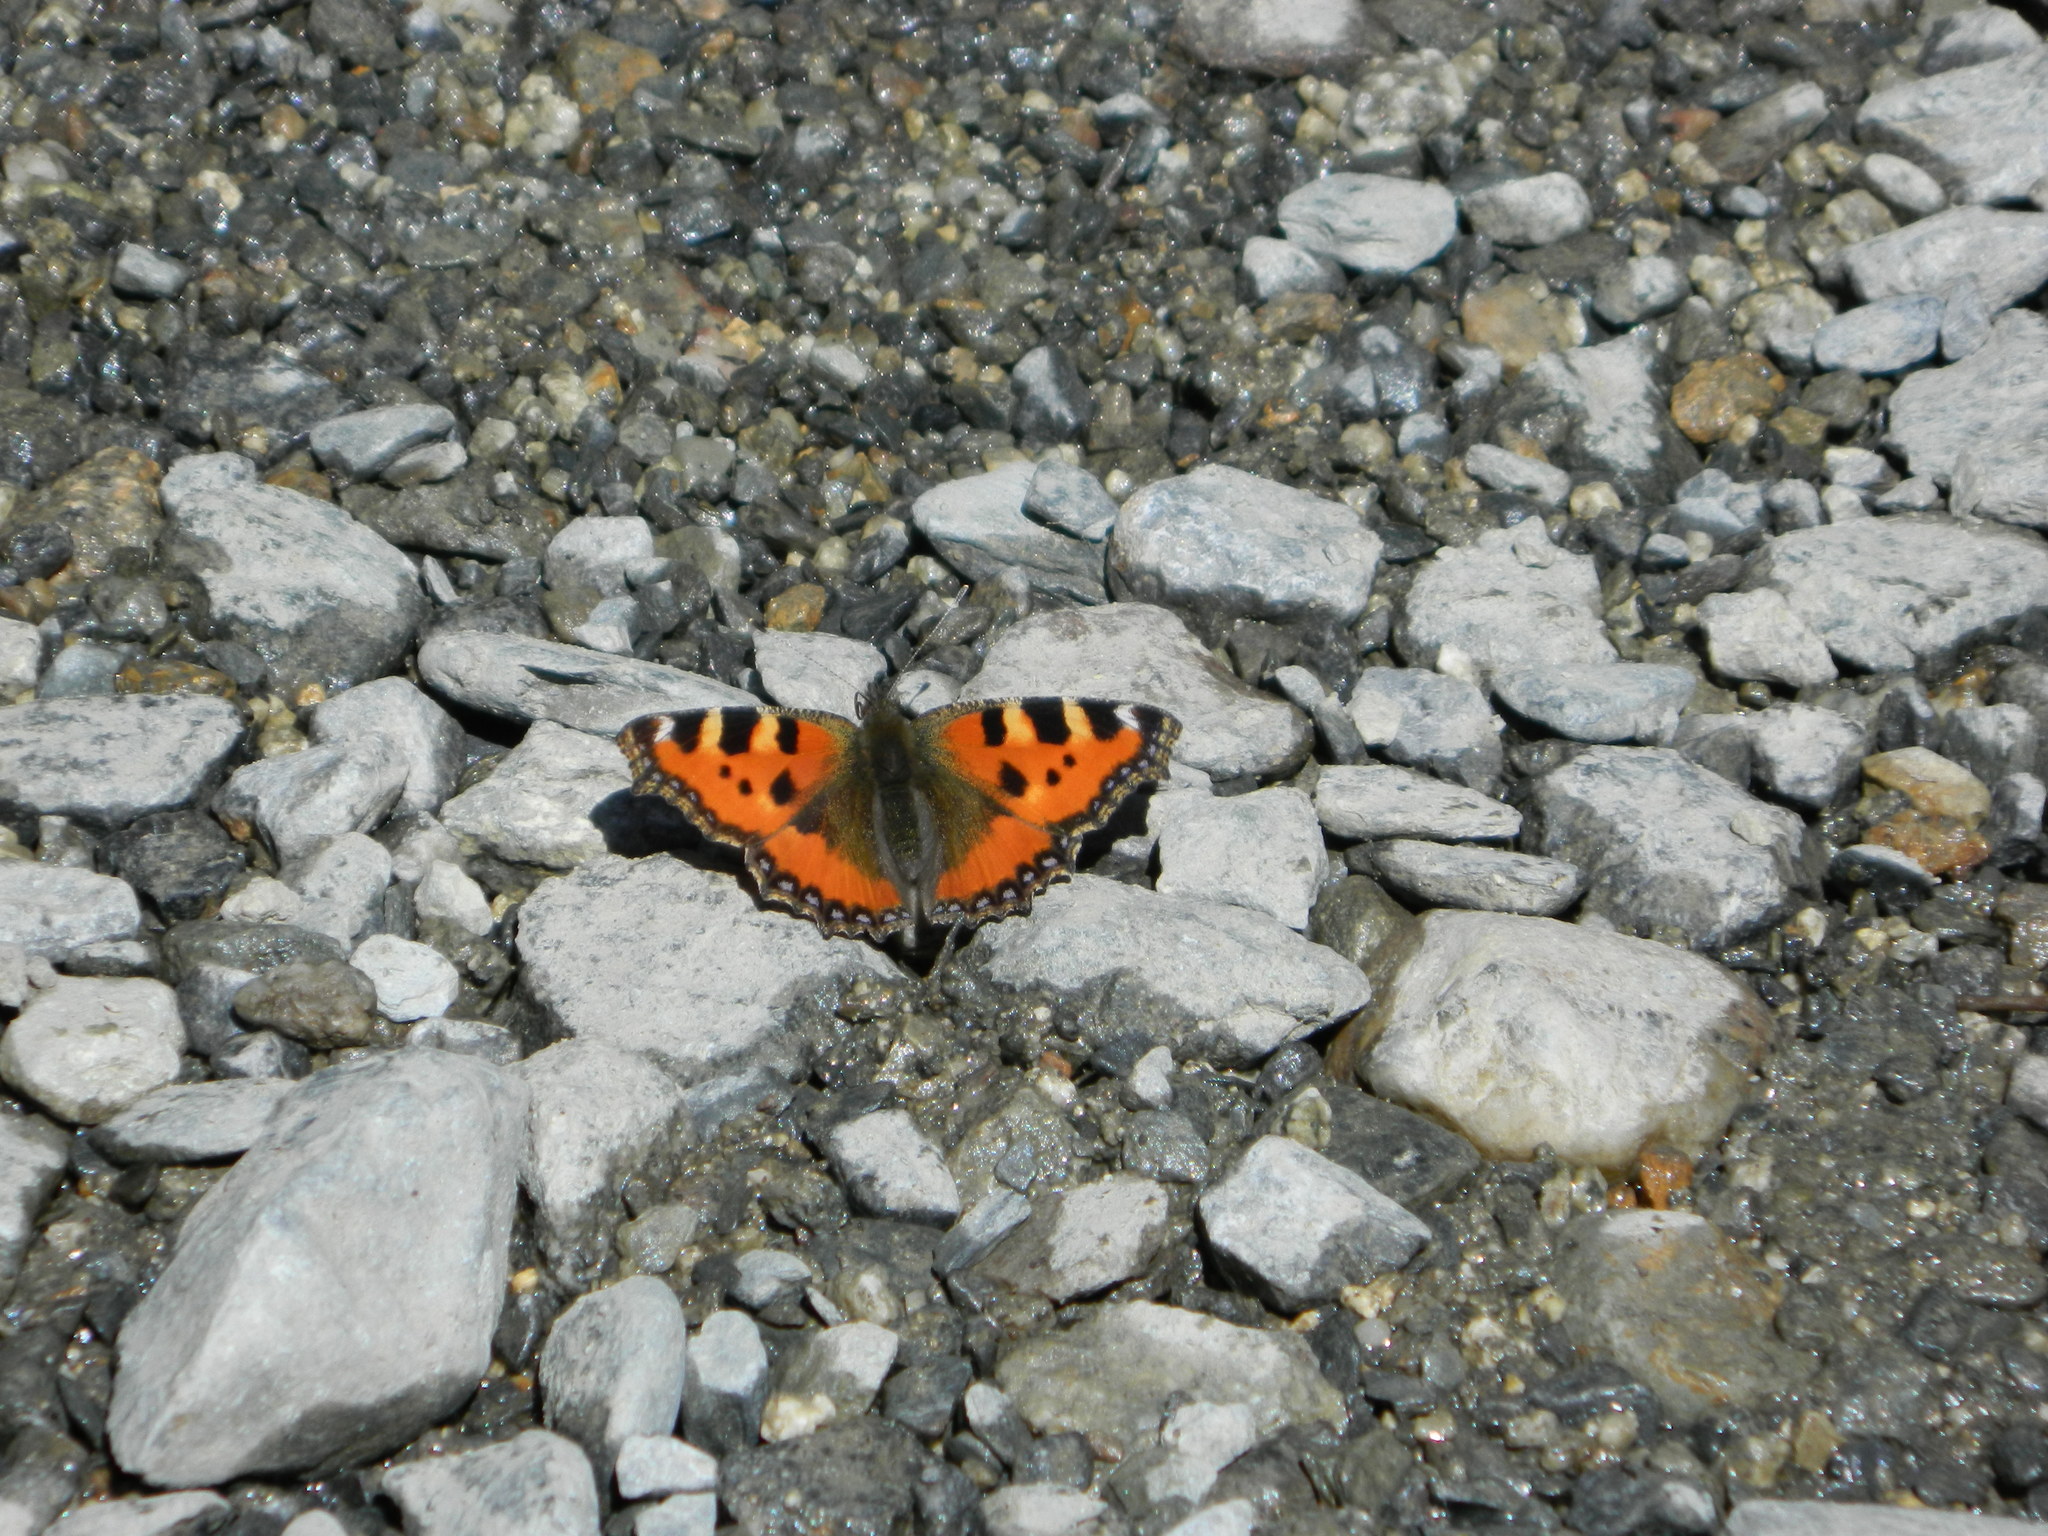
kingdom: Animalia
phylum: Arthropoda
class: Insecta
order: Lepidoptera
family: Nymphalidae
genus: Aglais
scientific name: Aglais urticae
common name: Small tortoiseshell
